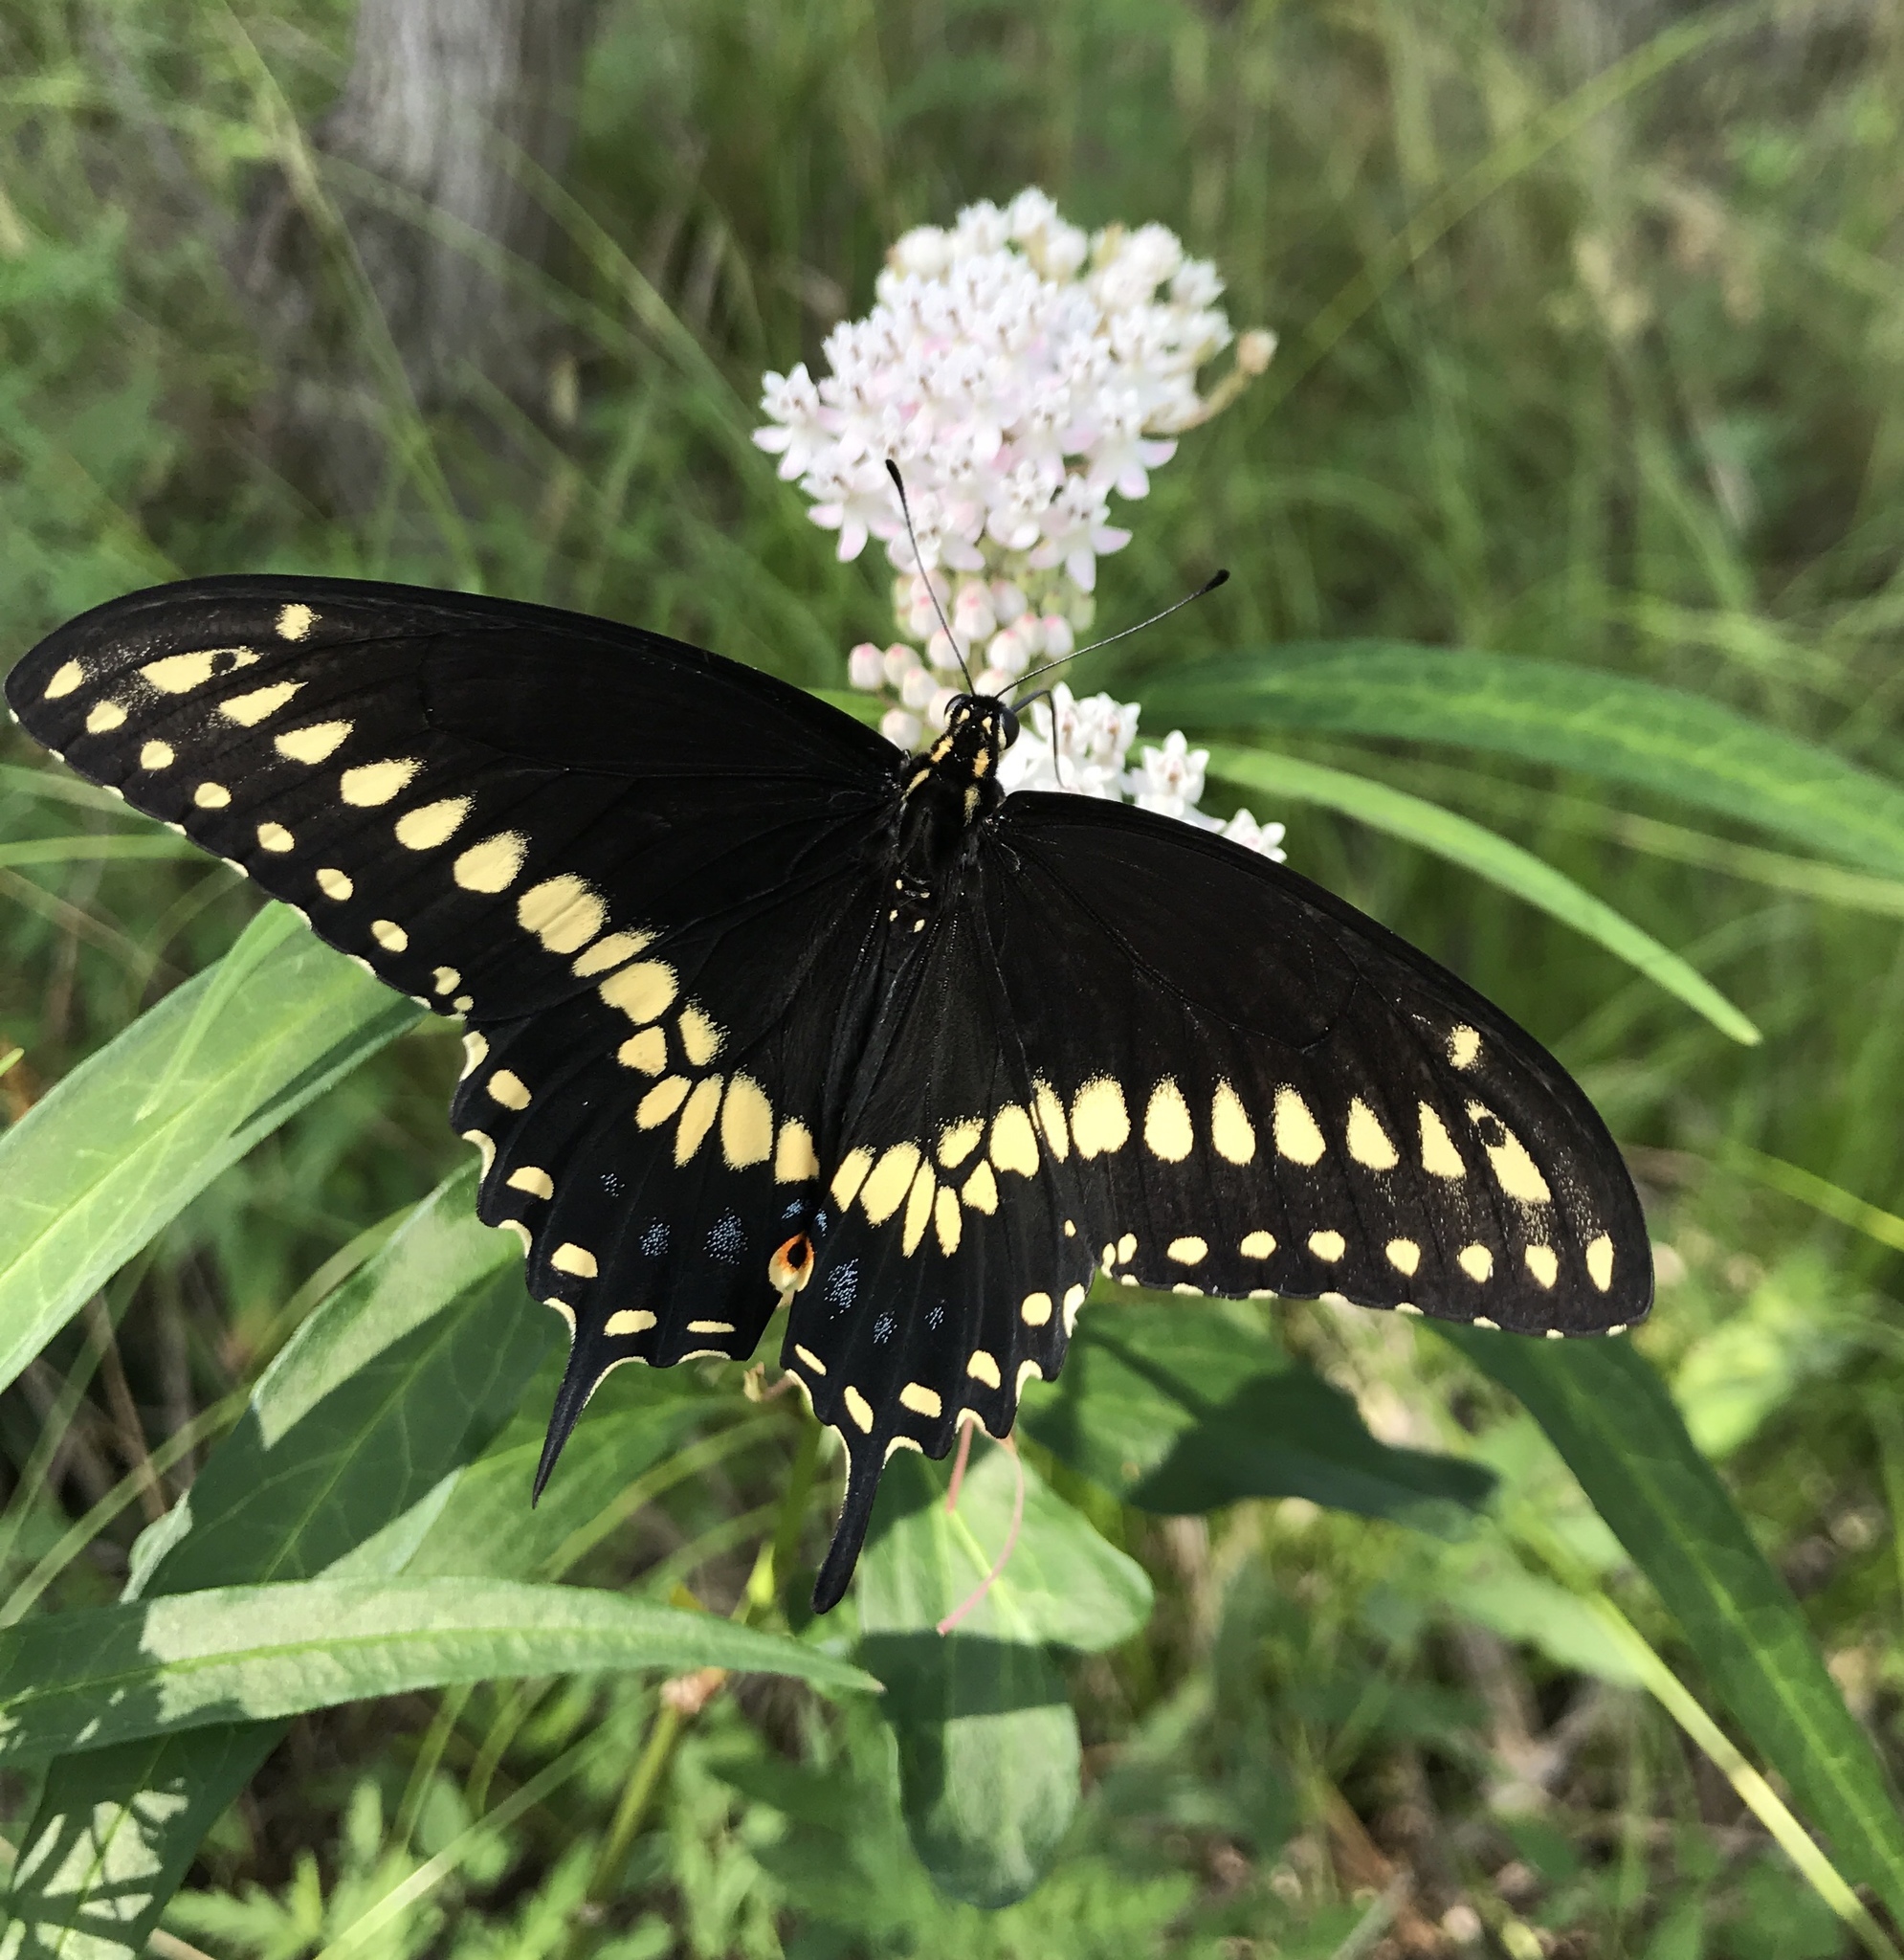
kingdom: Animalia
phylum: Arthropoda
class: Insecta
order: Lepidoptera
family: Papilionidae
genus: Papilio
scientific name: Papilio polyxenes
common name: Black swallowtail
